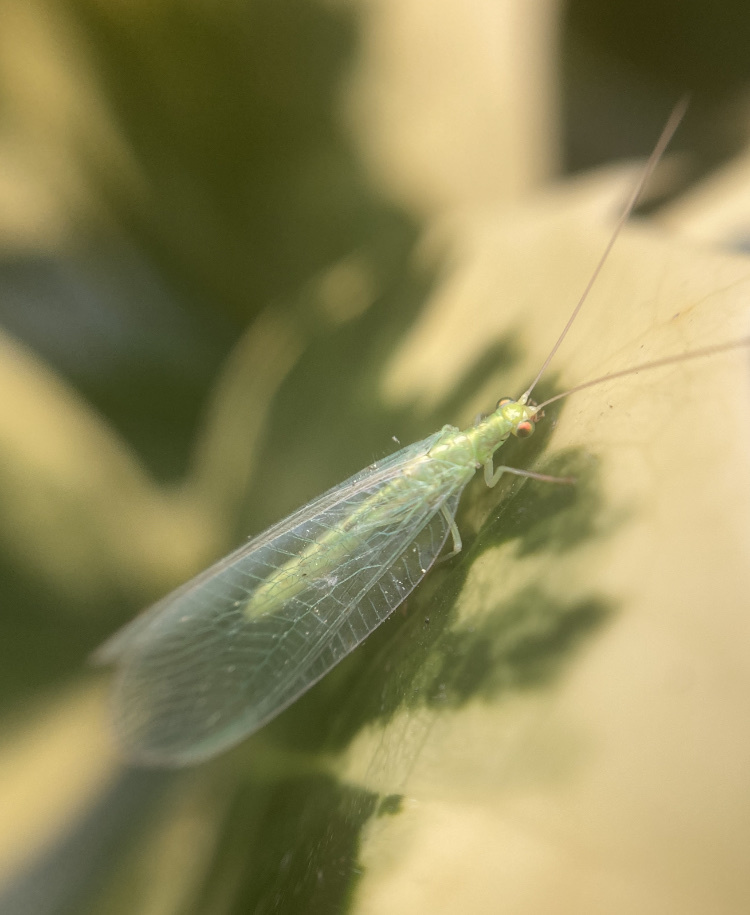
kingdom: Animalia
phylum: Arthropoda
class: Insecta
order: Neuroptera
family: Chrysopidae
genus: Chrysoperla
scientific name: Chrysoperla
